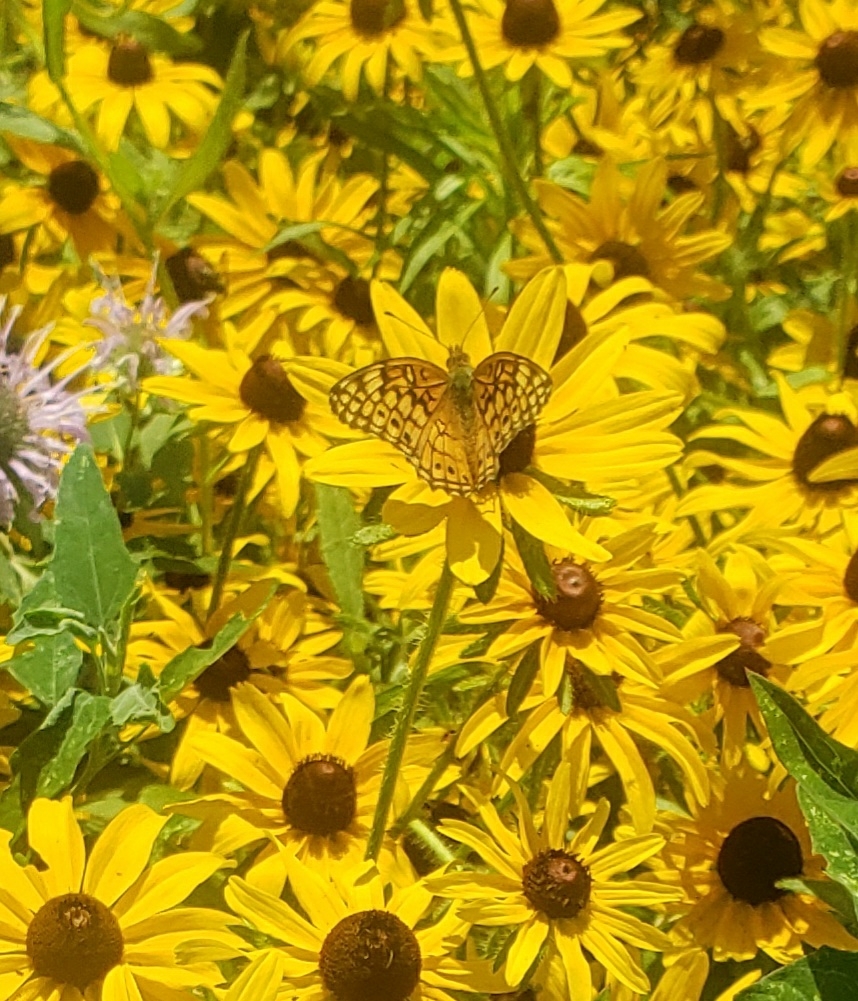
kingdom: Animalia
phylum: Arthropoda
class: Insecta
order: Lepidoptera
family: Nymphalidae
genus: Euptoieta
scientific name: Euptoieta claudia
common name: Variegated fritillary
